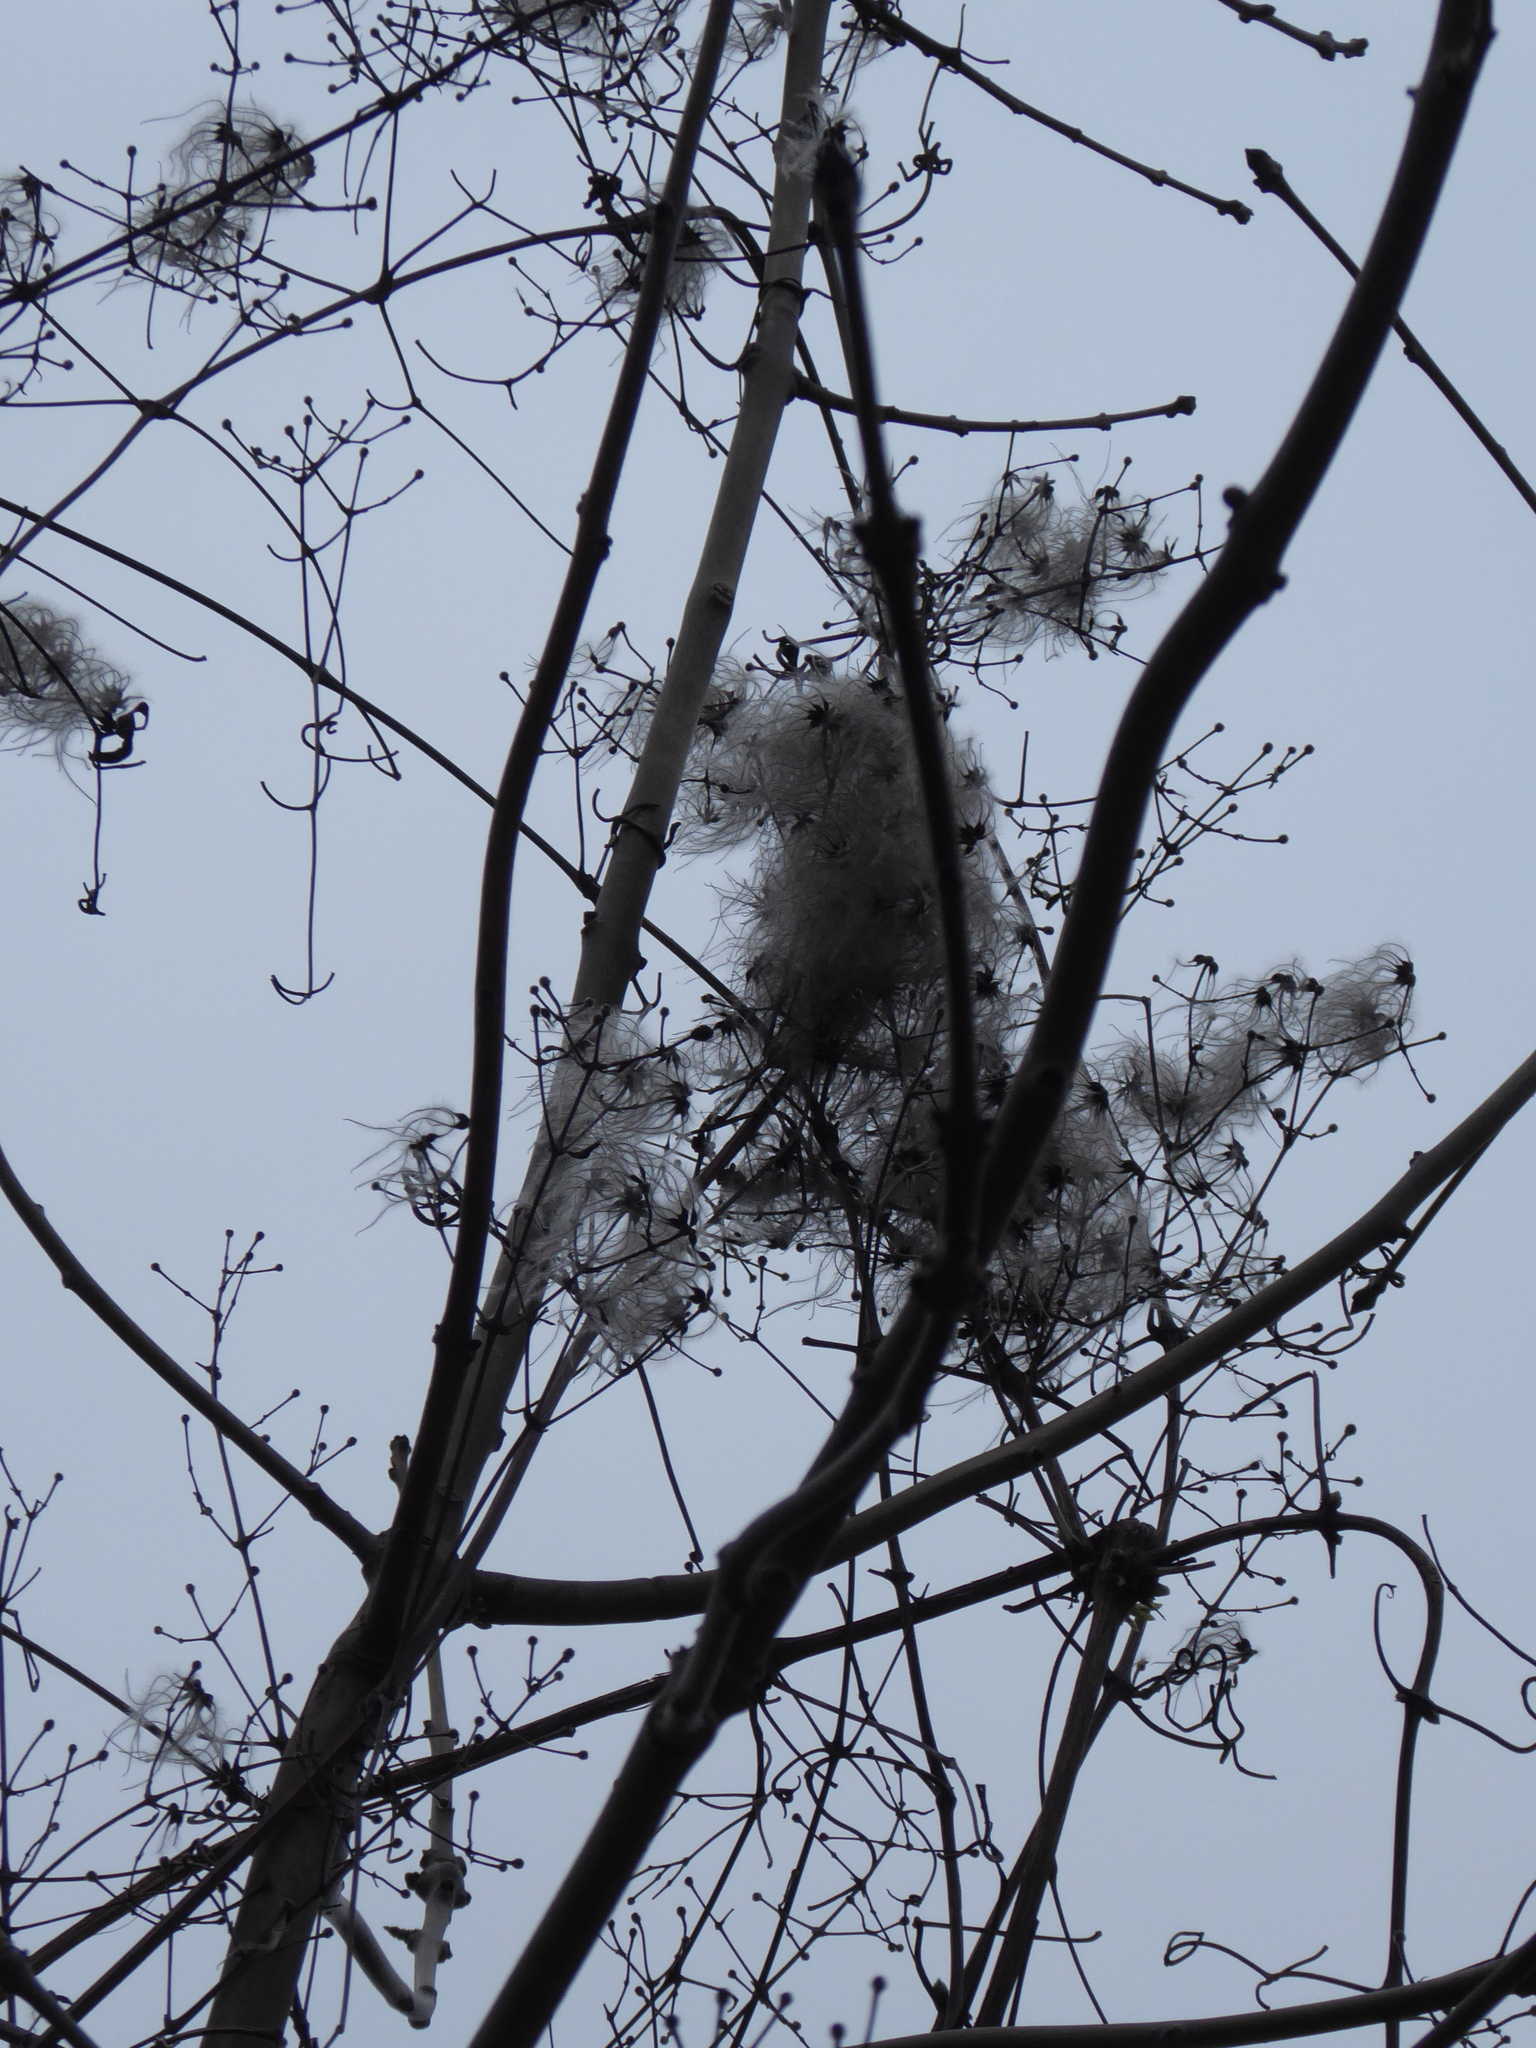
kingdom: Plantae
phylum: Tracheophyta
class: Magnoliopsida
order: Ranunculales
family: Ranunculaceae
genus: Clematis
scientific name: Clematis vitalba
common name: Evergreen clematis
